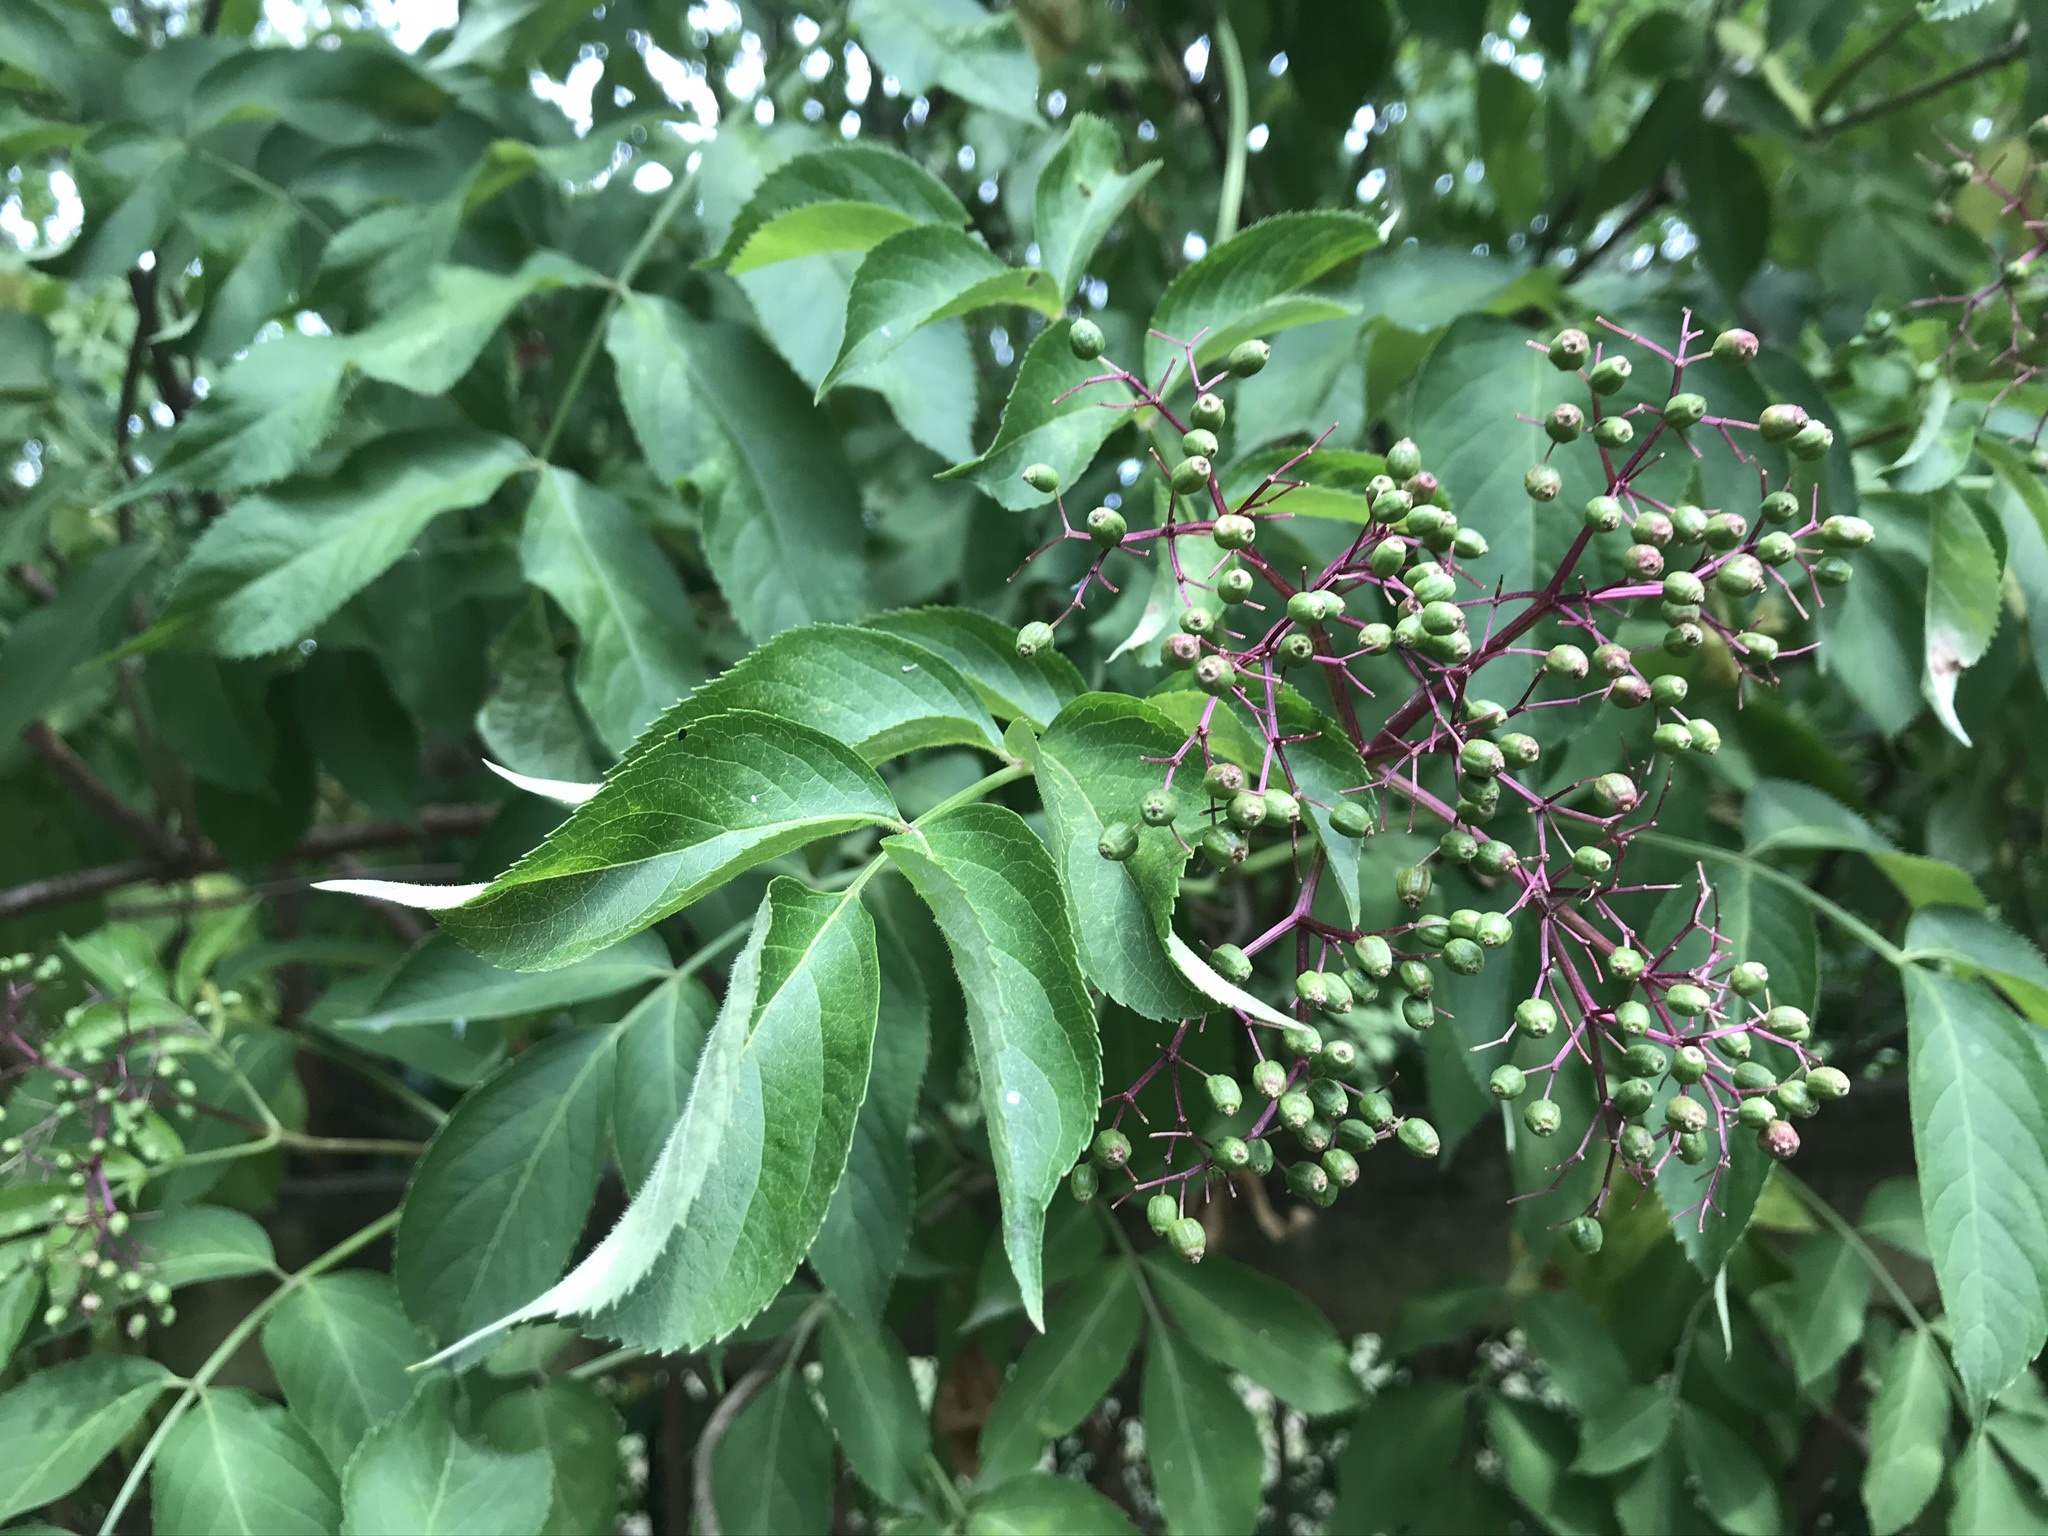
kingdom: Plantae
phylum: Tracheophyta
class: Magnoliopsida
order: Dipsacales
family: Viburnaceae
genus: Sambucus
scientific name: Sambucus canadensis
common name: American elder
